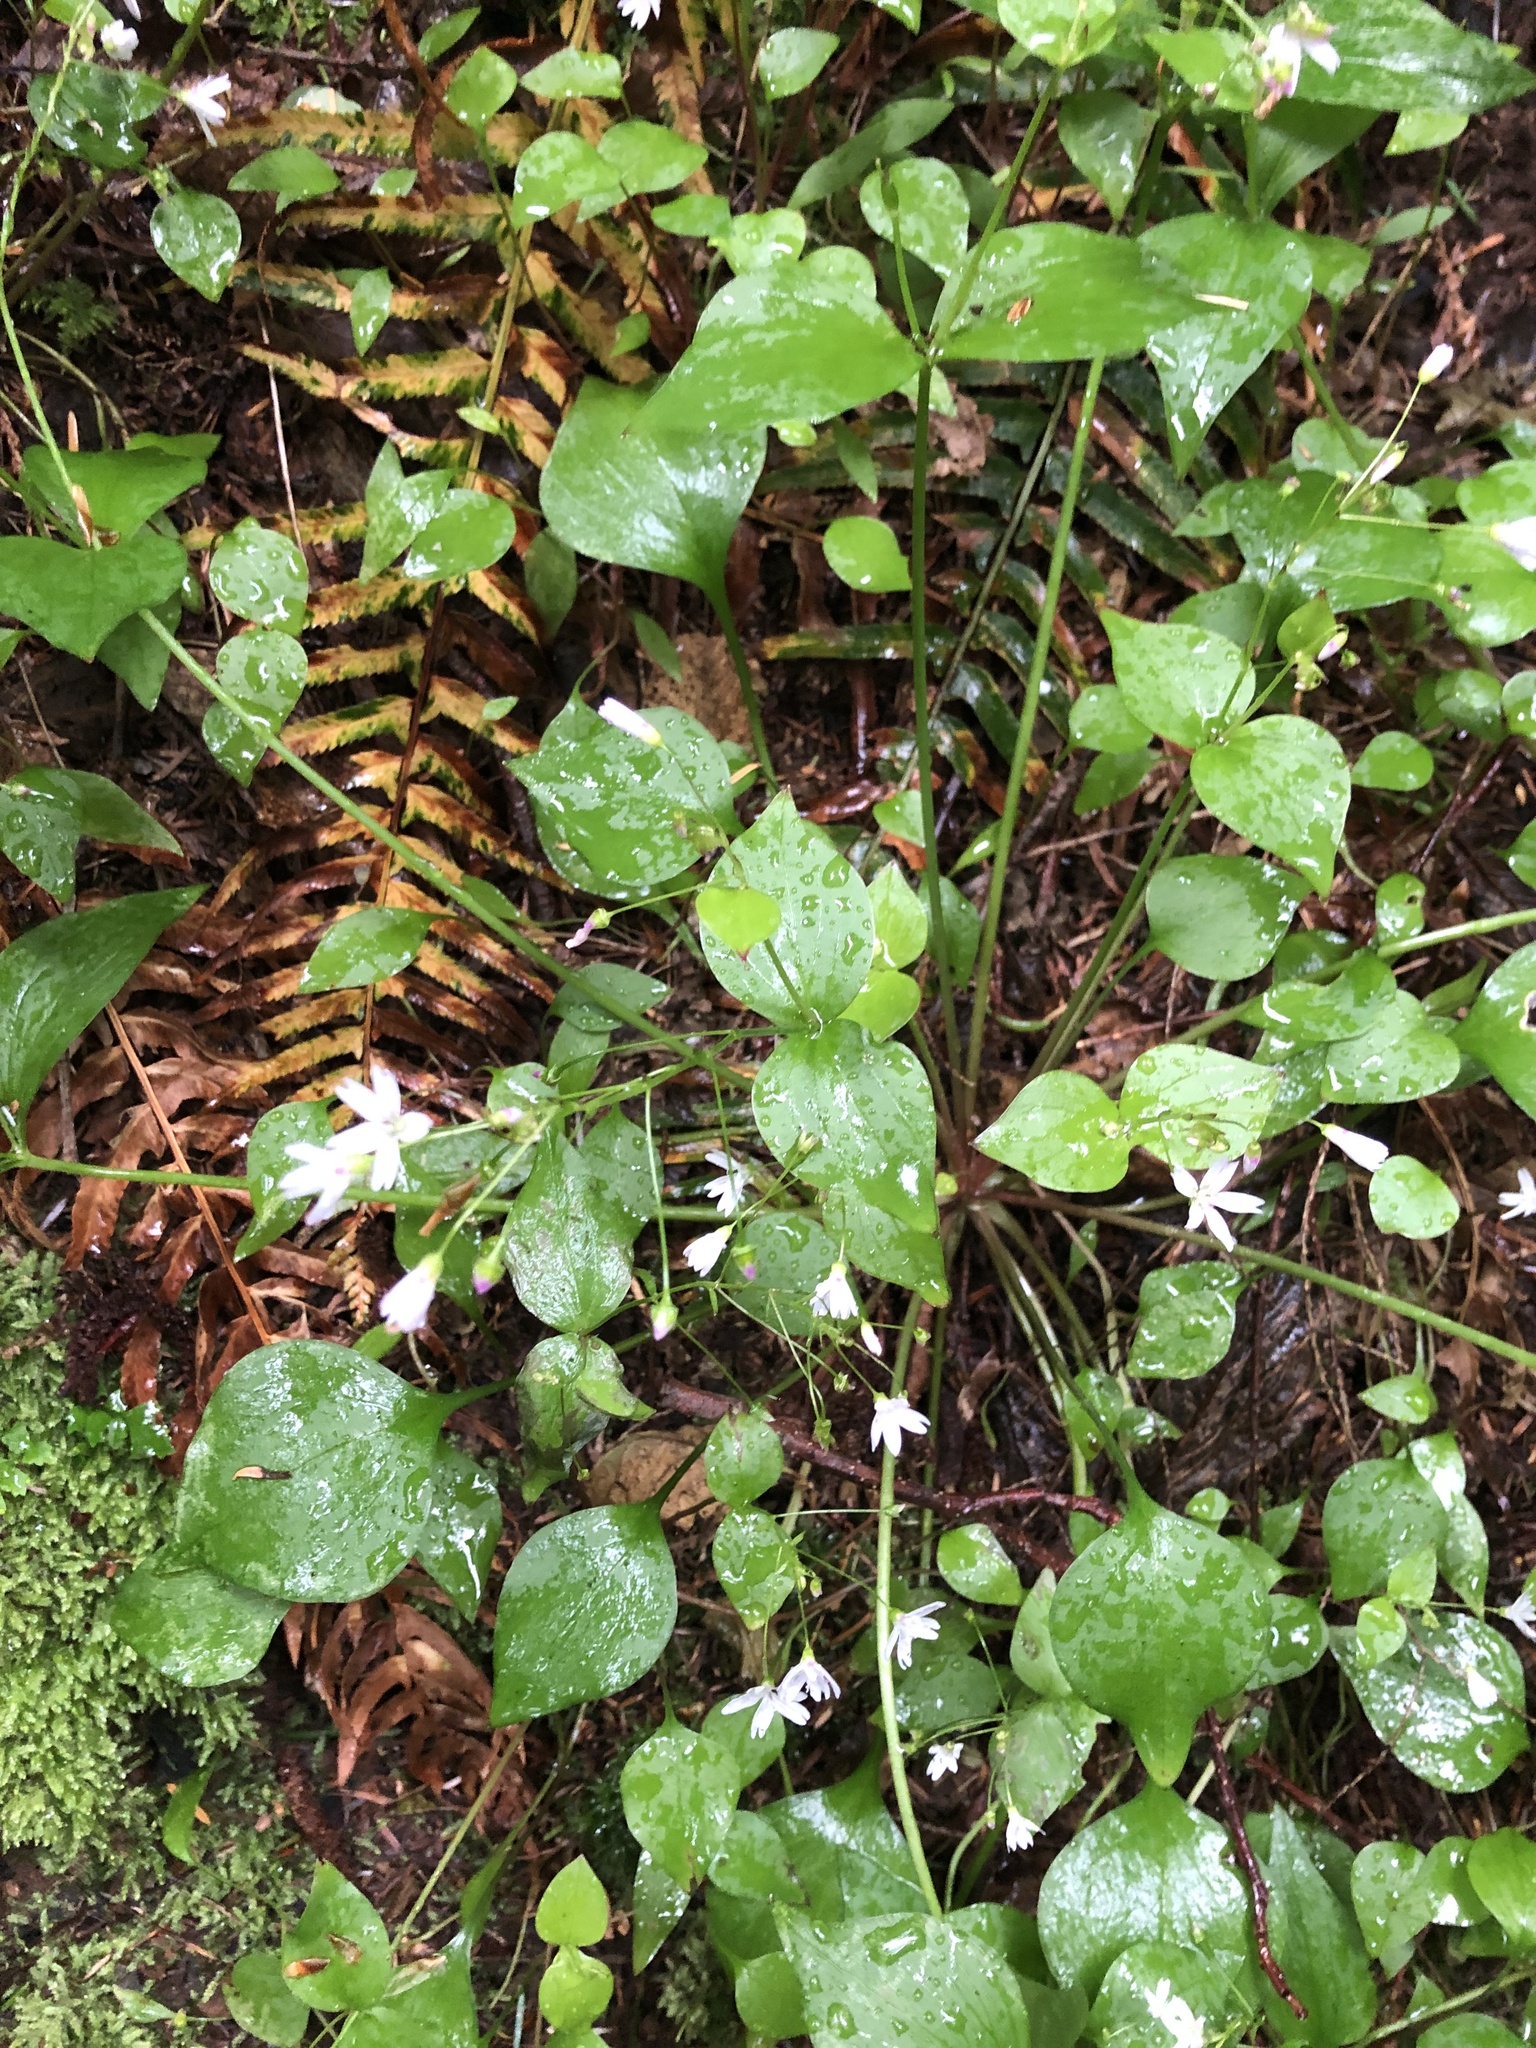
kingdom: Plantae
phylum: Tracheophyta
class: Magnoliopsida
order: Caryophyllales
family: Montiaceae
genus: Claytonia
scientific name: Claytonia sibirica
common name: Pink purslane
